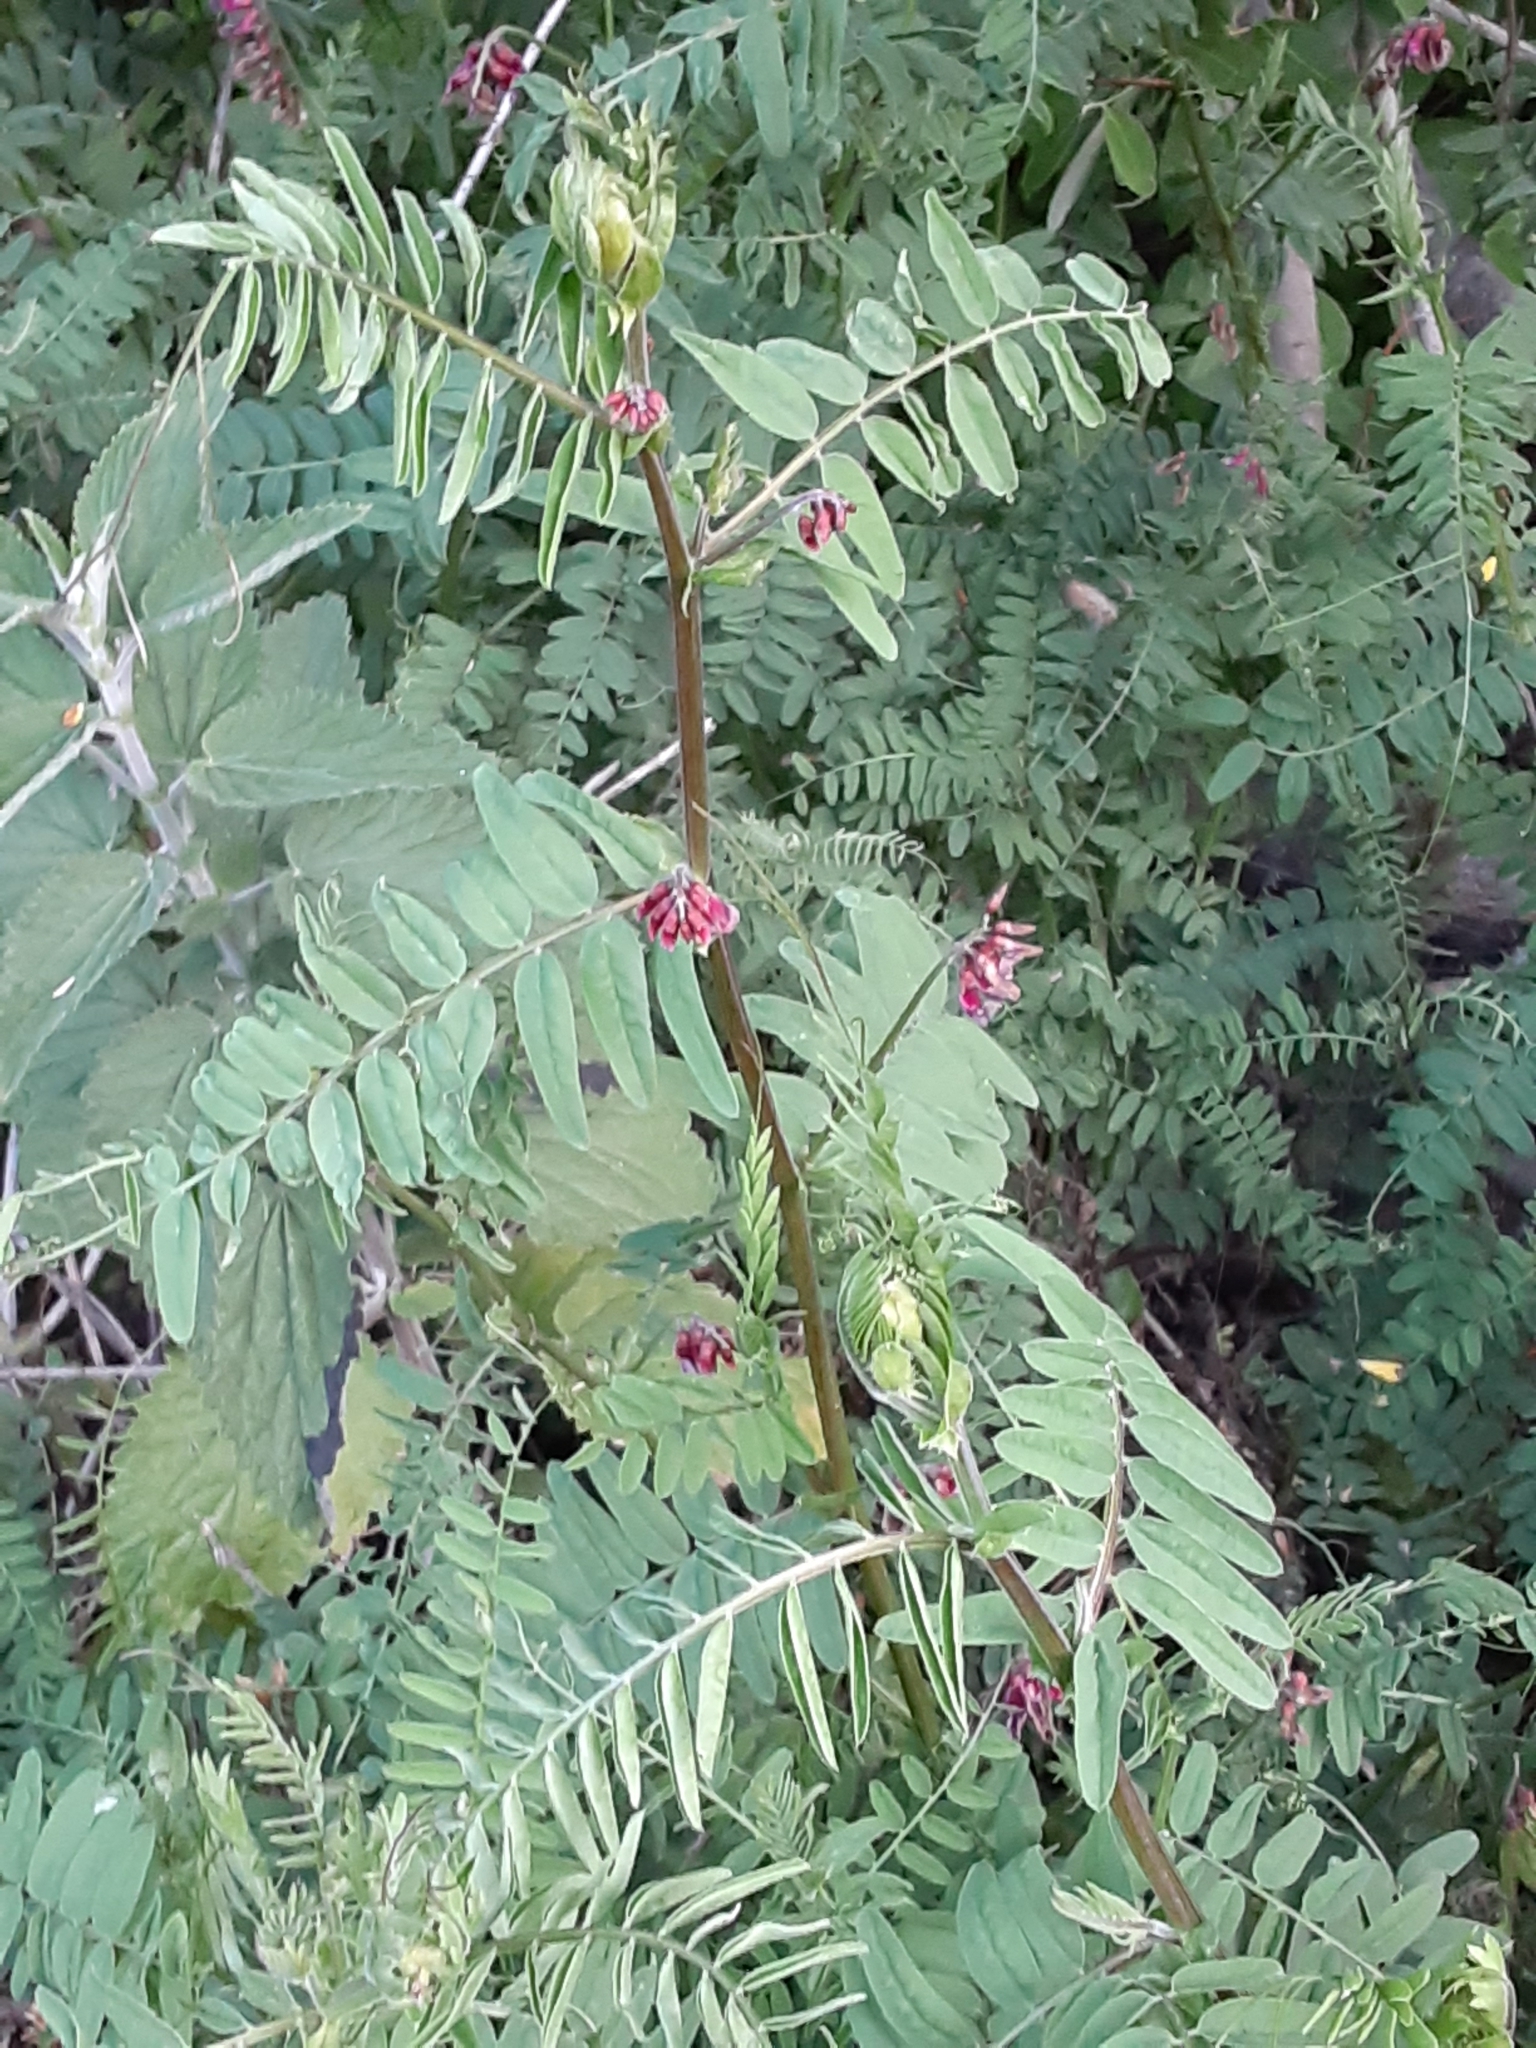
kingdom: Plantae
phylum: Tracheophyta
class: Magnoliopsida
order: Fabales
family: Fabaceae
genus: Vicia
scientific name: Vicia
